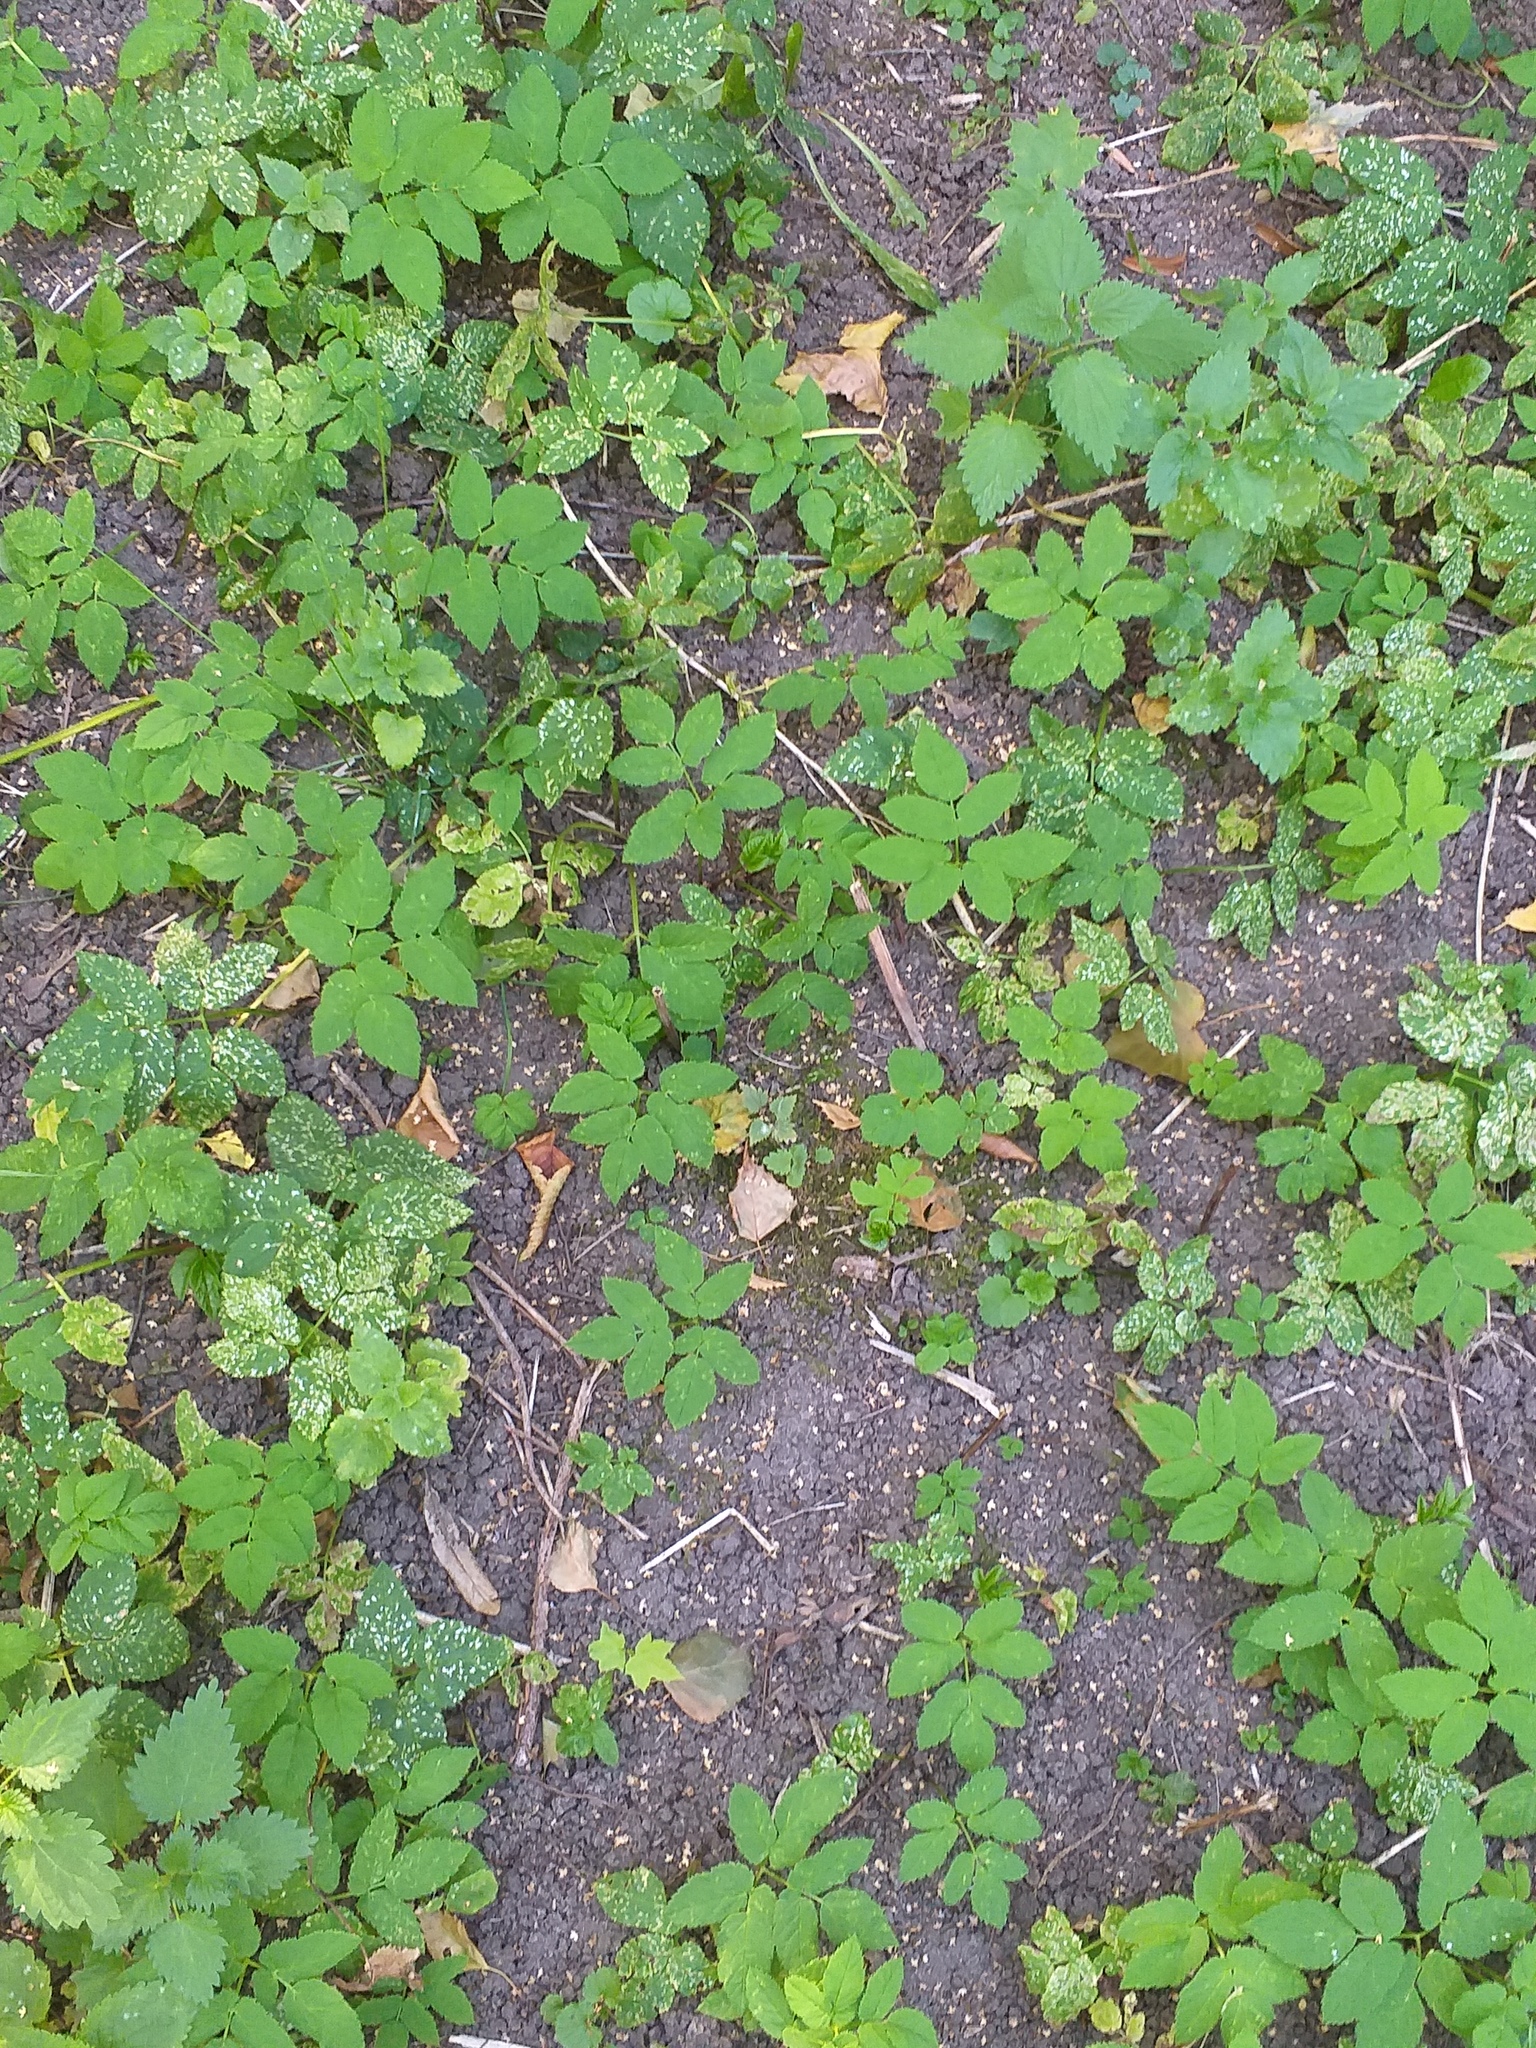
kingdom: Plantae
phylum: Tracheophyta
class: Magnoliopsida
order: Apiales
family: Apiaceae
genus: Aegopodium
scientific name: Aegopodium podagraria
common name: Ground-elder
